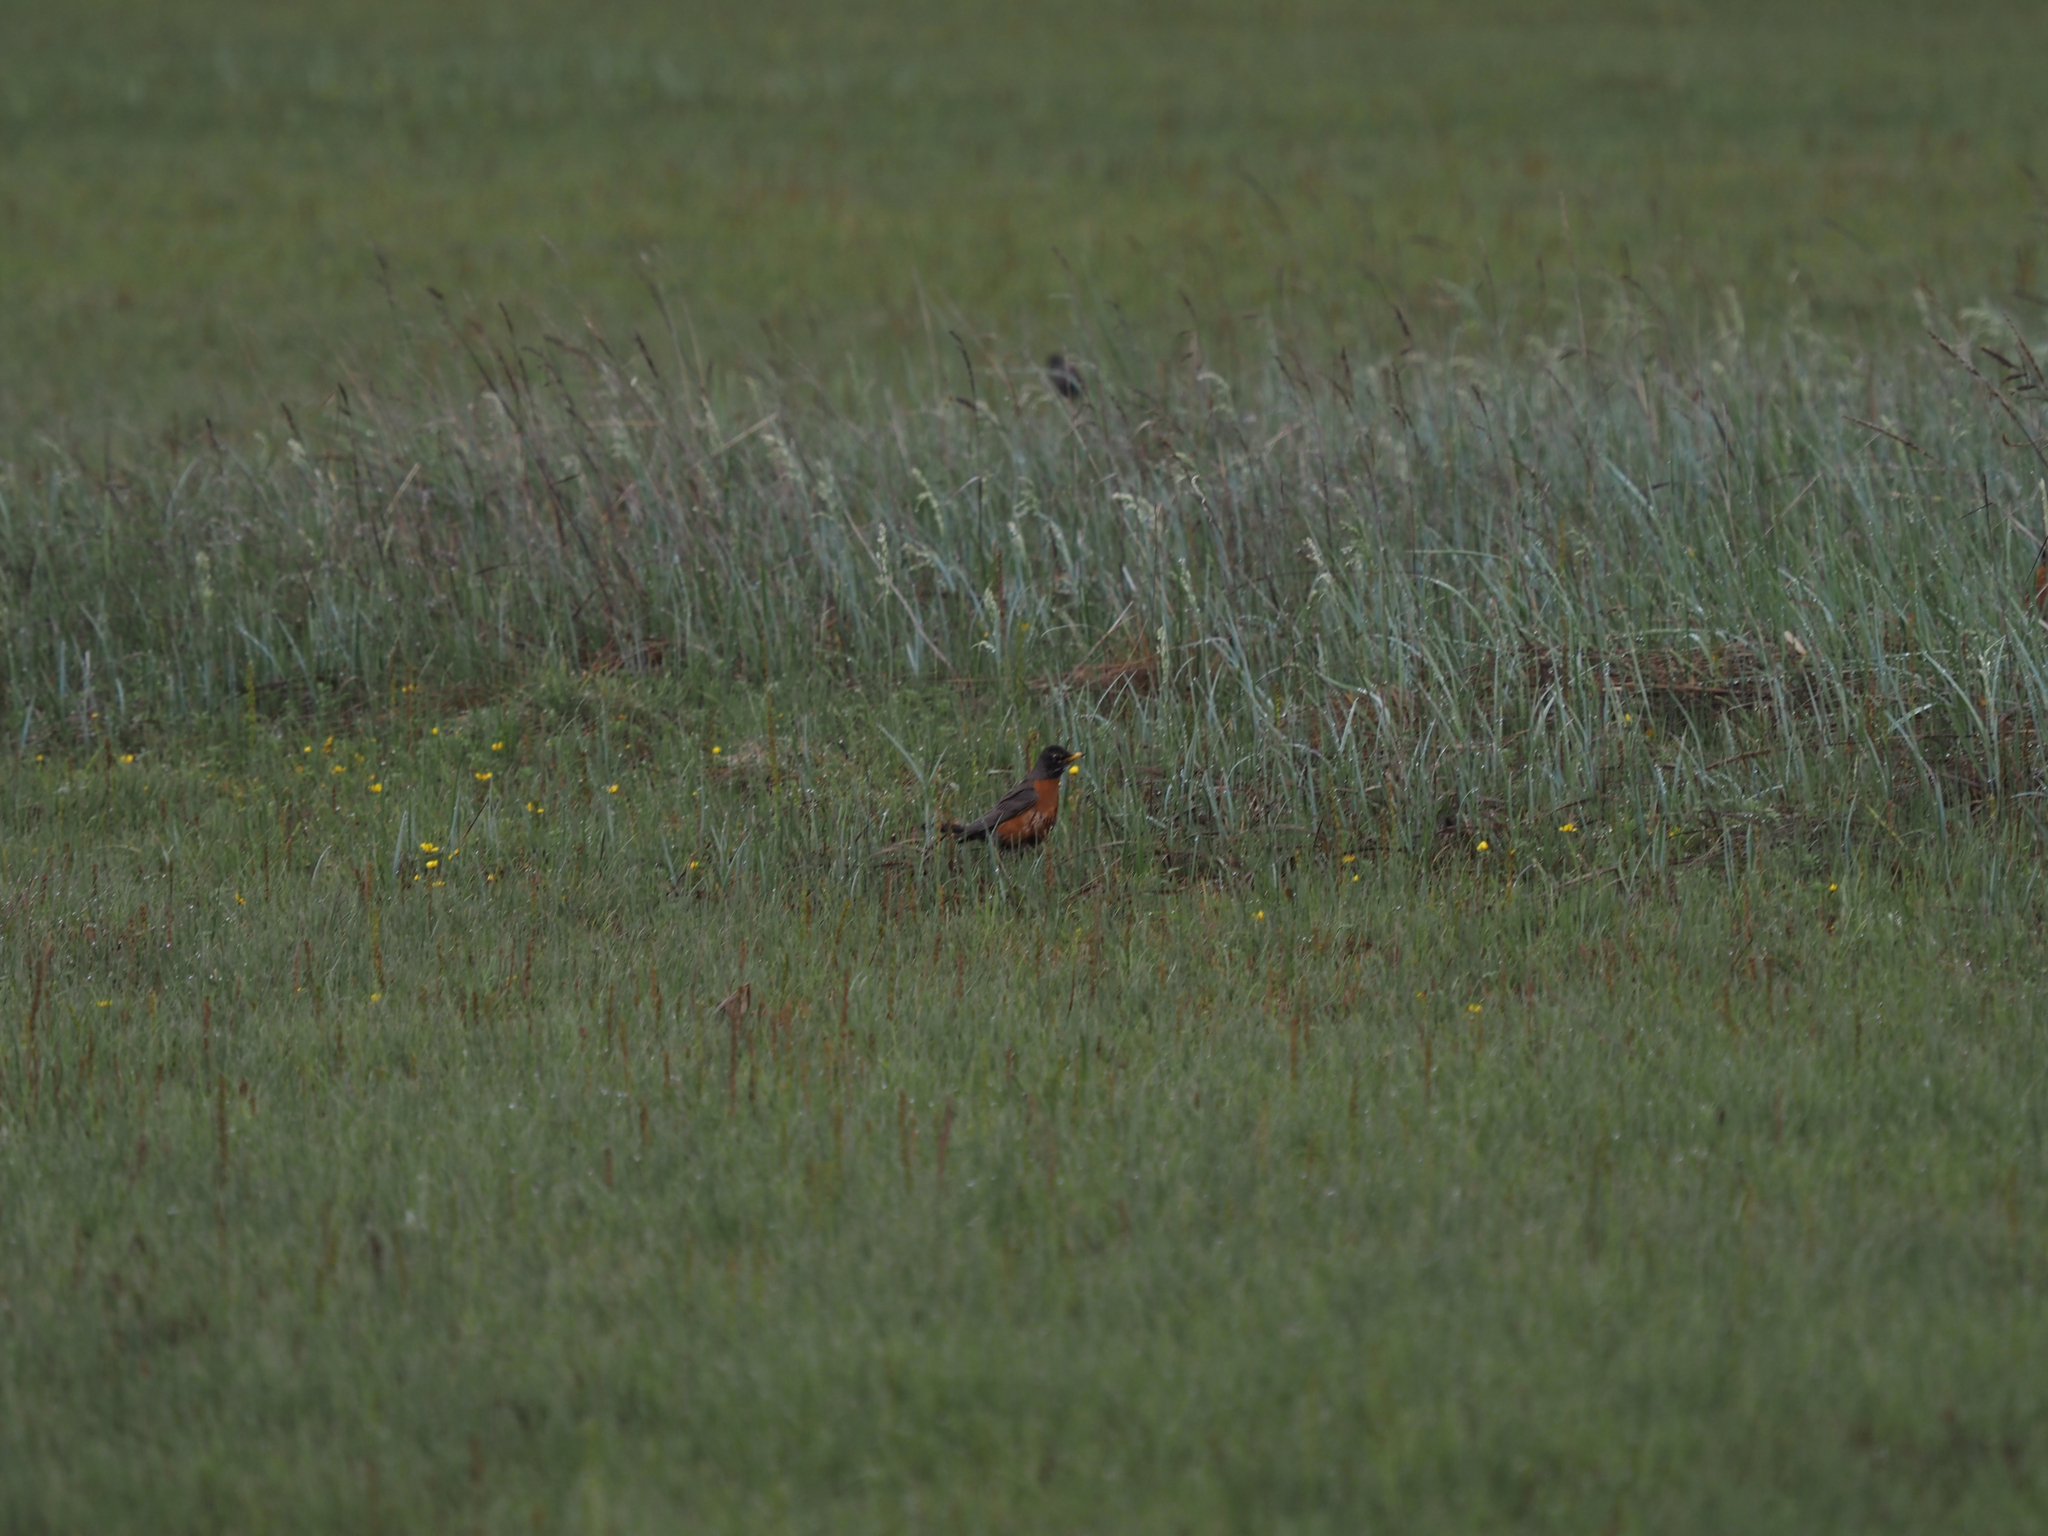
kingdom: Animalia
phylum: Chordata
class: Aves
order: Passeriformes
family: Turdidae
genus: Turdus
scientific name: Turdus migratorius
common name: American robin
